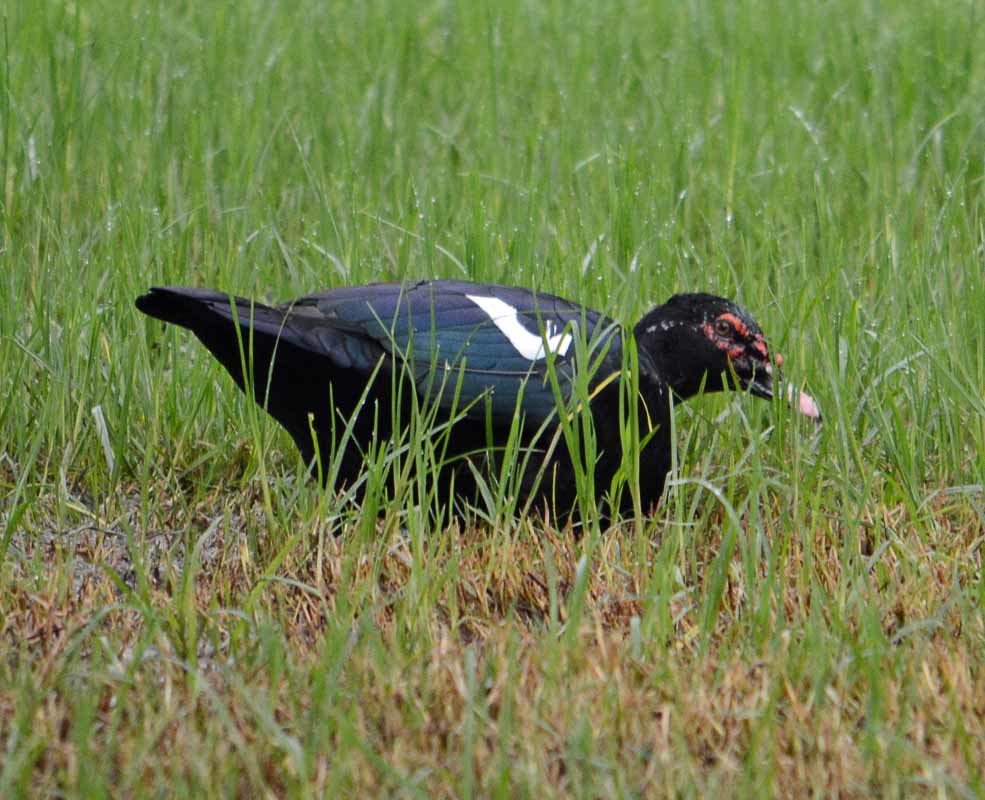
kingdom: Animalia
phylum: Chordata
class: Aves
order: Anseriformes
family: Anatidae
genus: Cairina
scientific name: Cairina moschata
